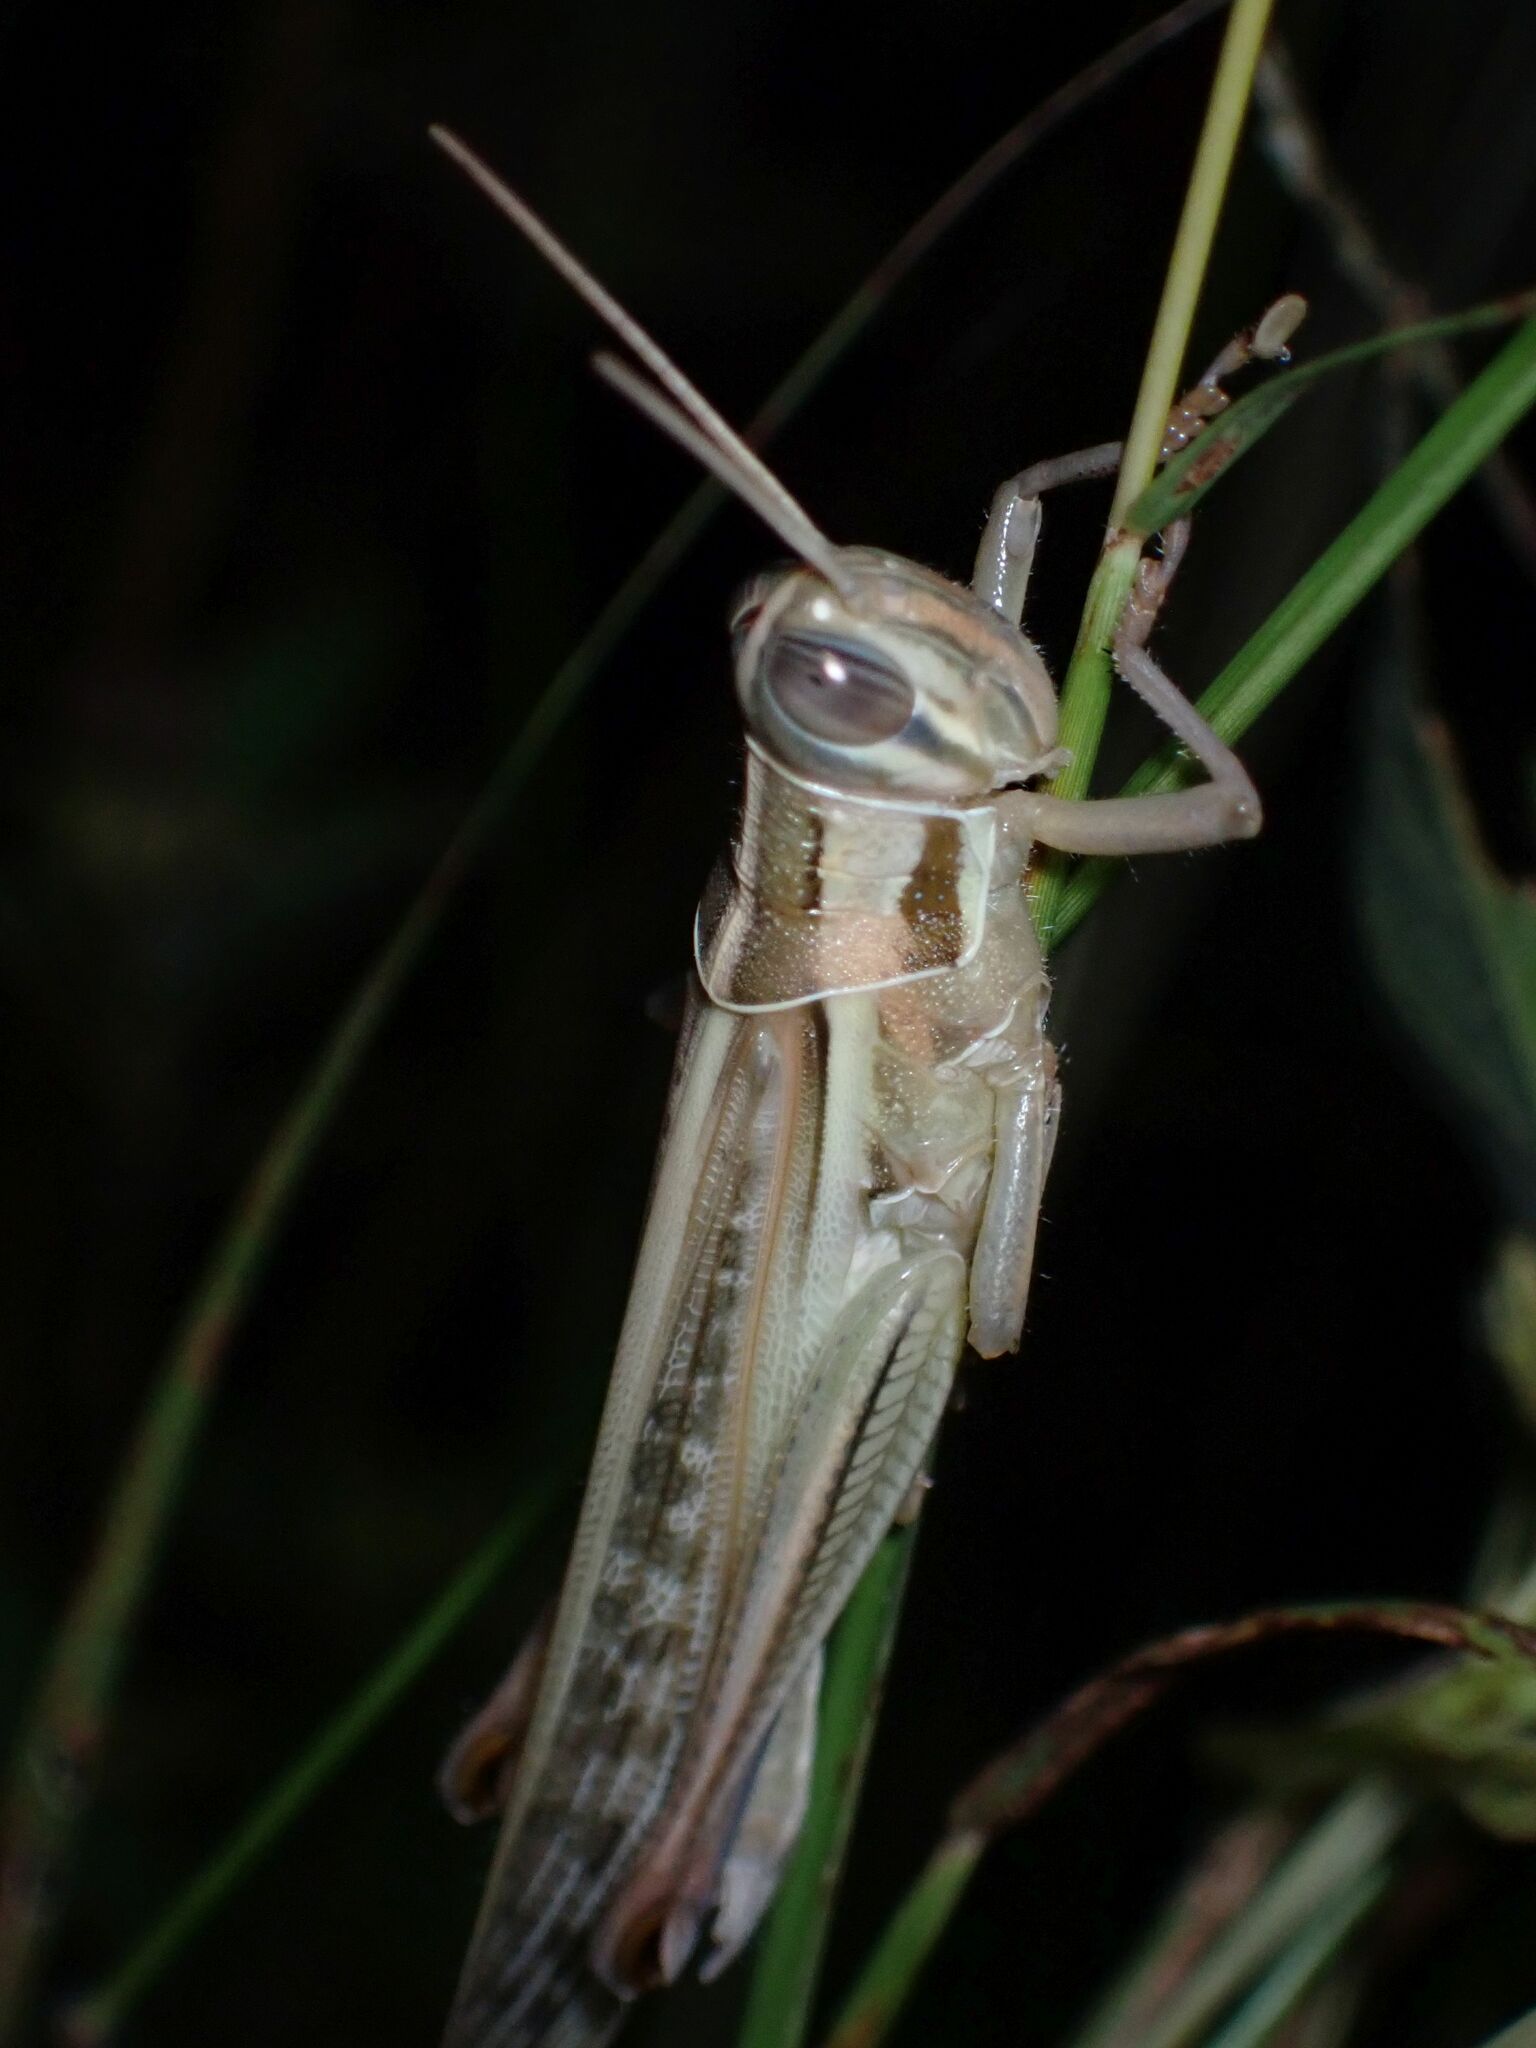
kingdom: Animalia
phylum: Arthropoda
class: Insecta
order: Orthoptera
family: Acrididae
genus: Austracris
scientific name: Austracris guttulosa
